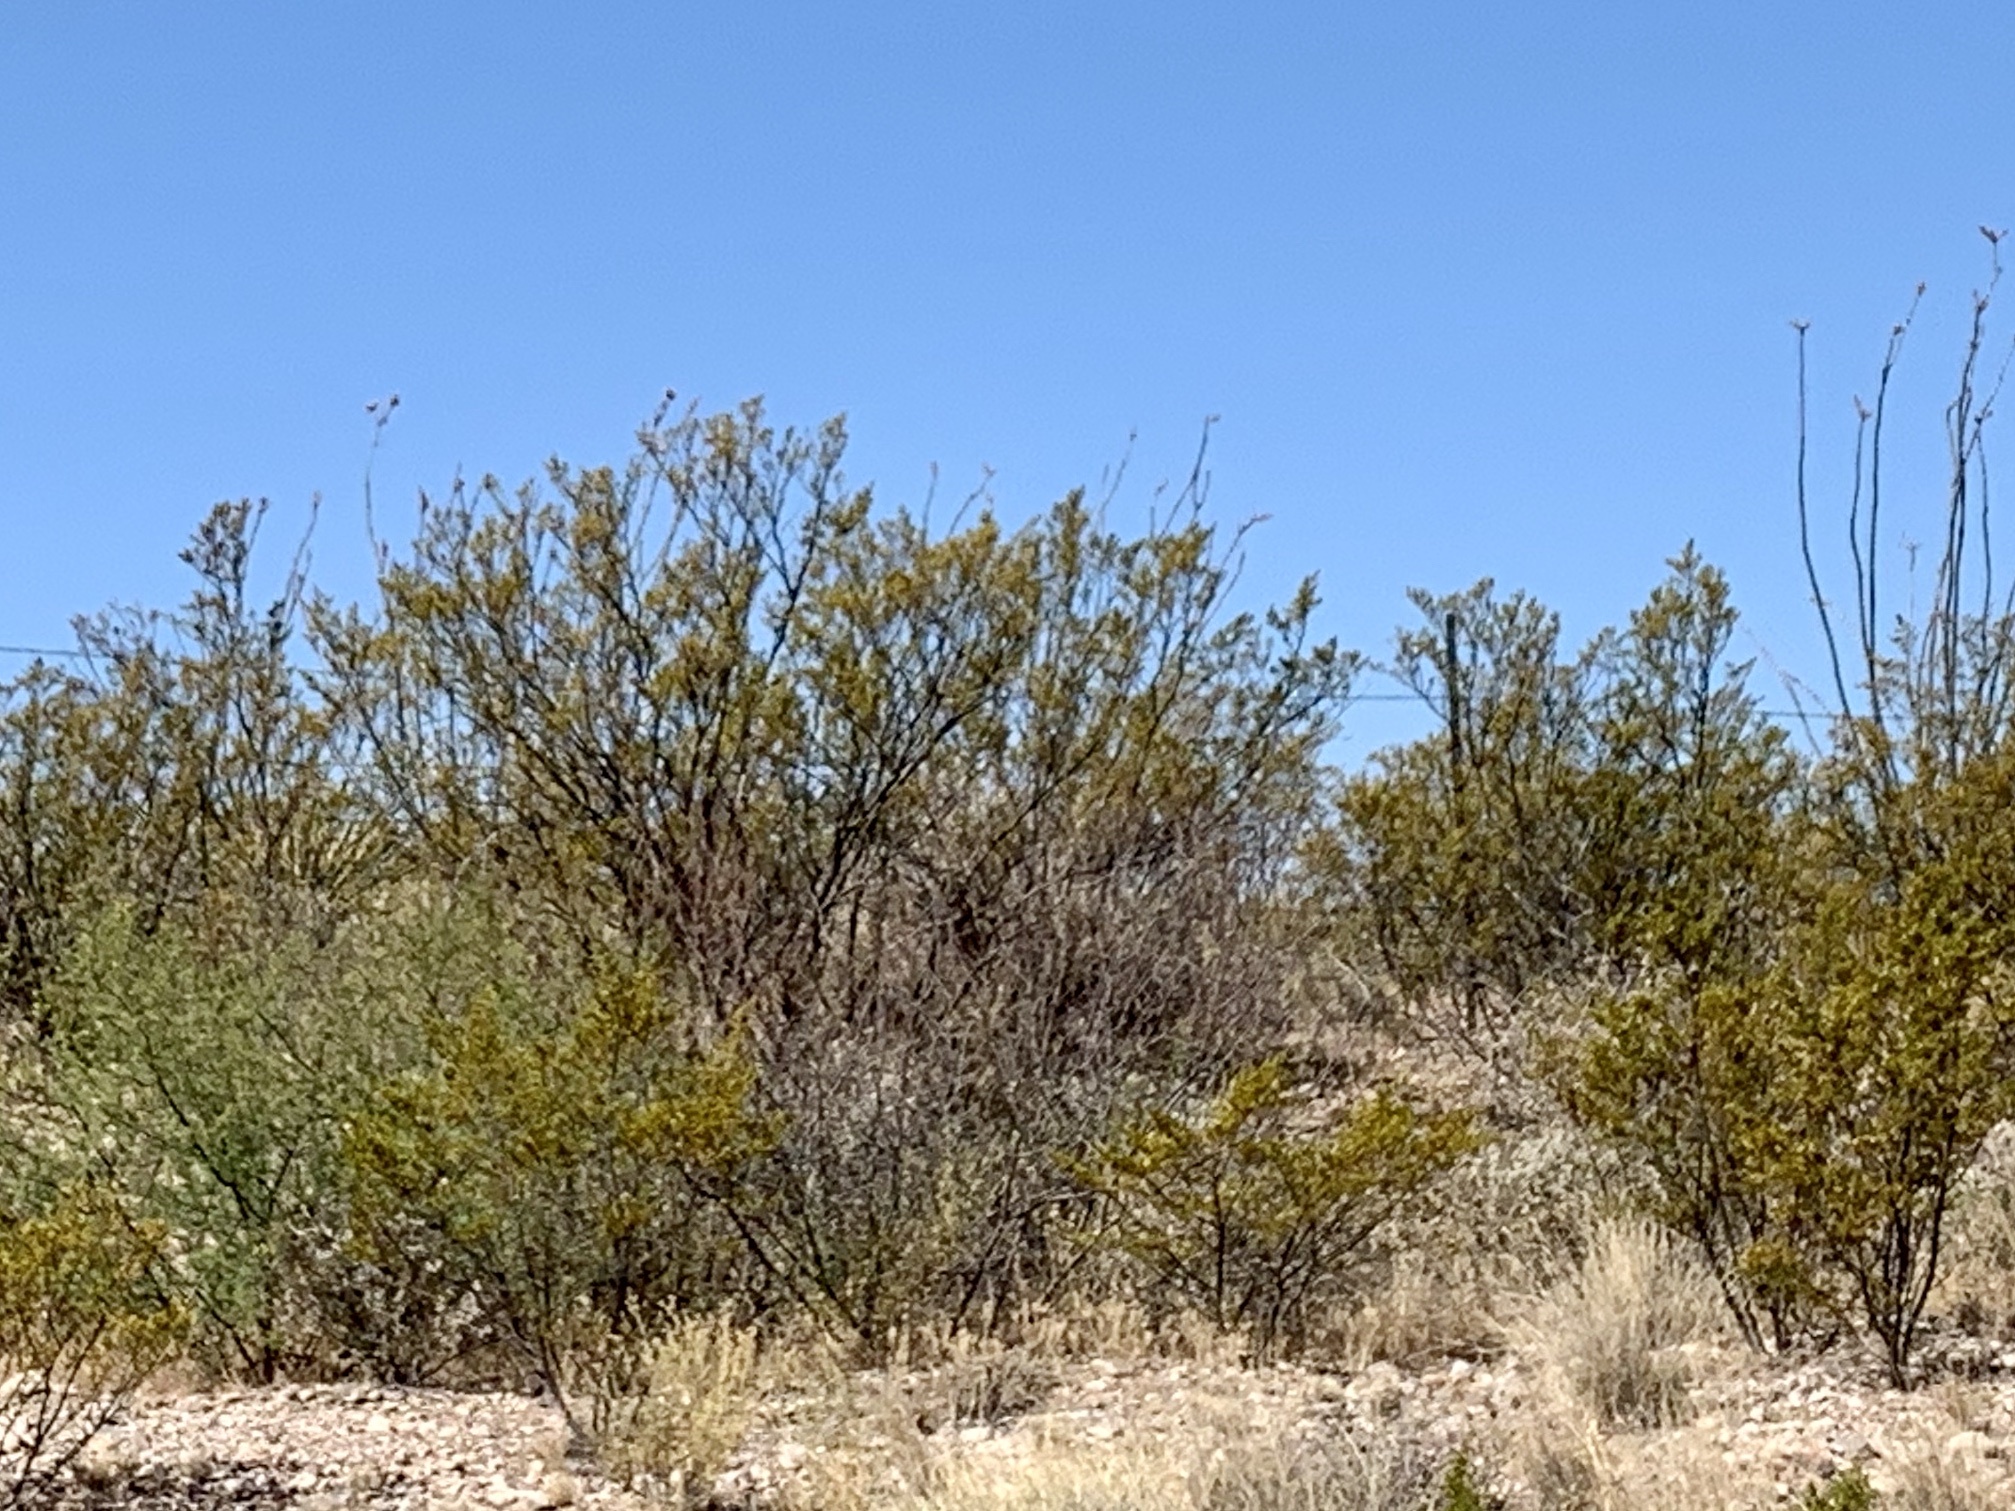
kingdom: Plantae
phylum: Tracheophyta
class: Magnoliopsida
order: Zygophyllales
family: Zygophyllaceae
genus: Larrea
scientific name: Larrea tridentata
